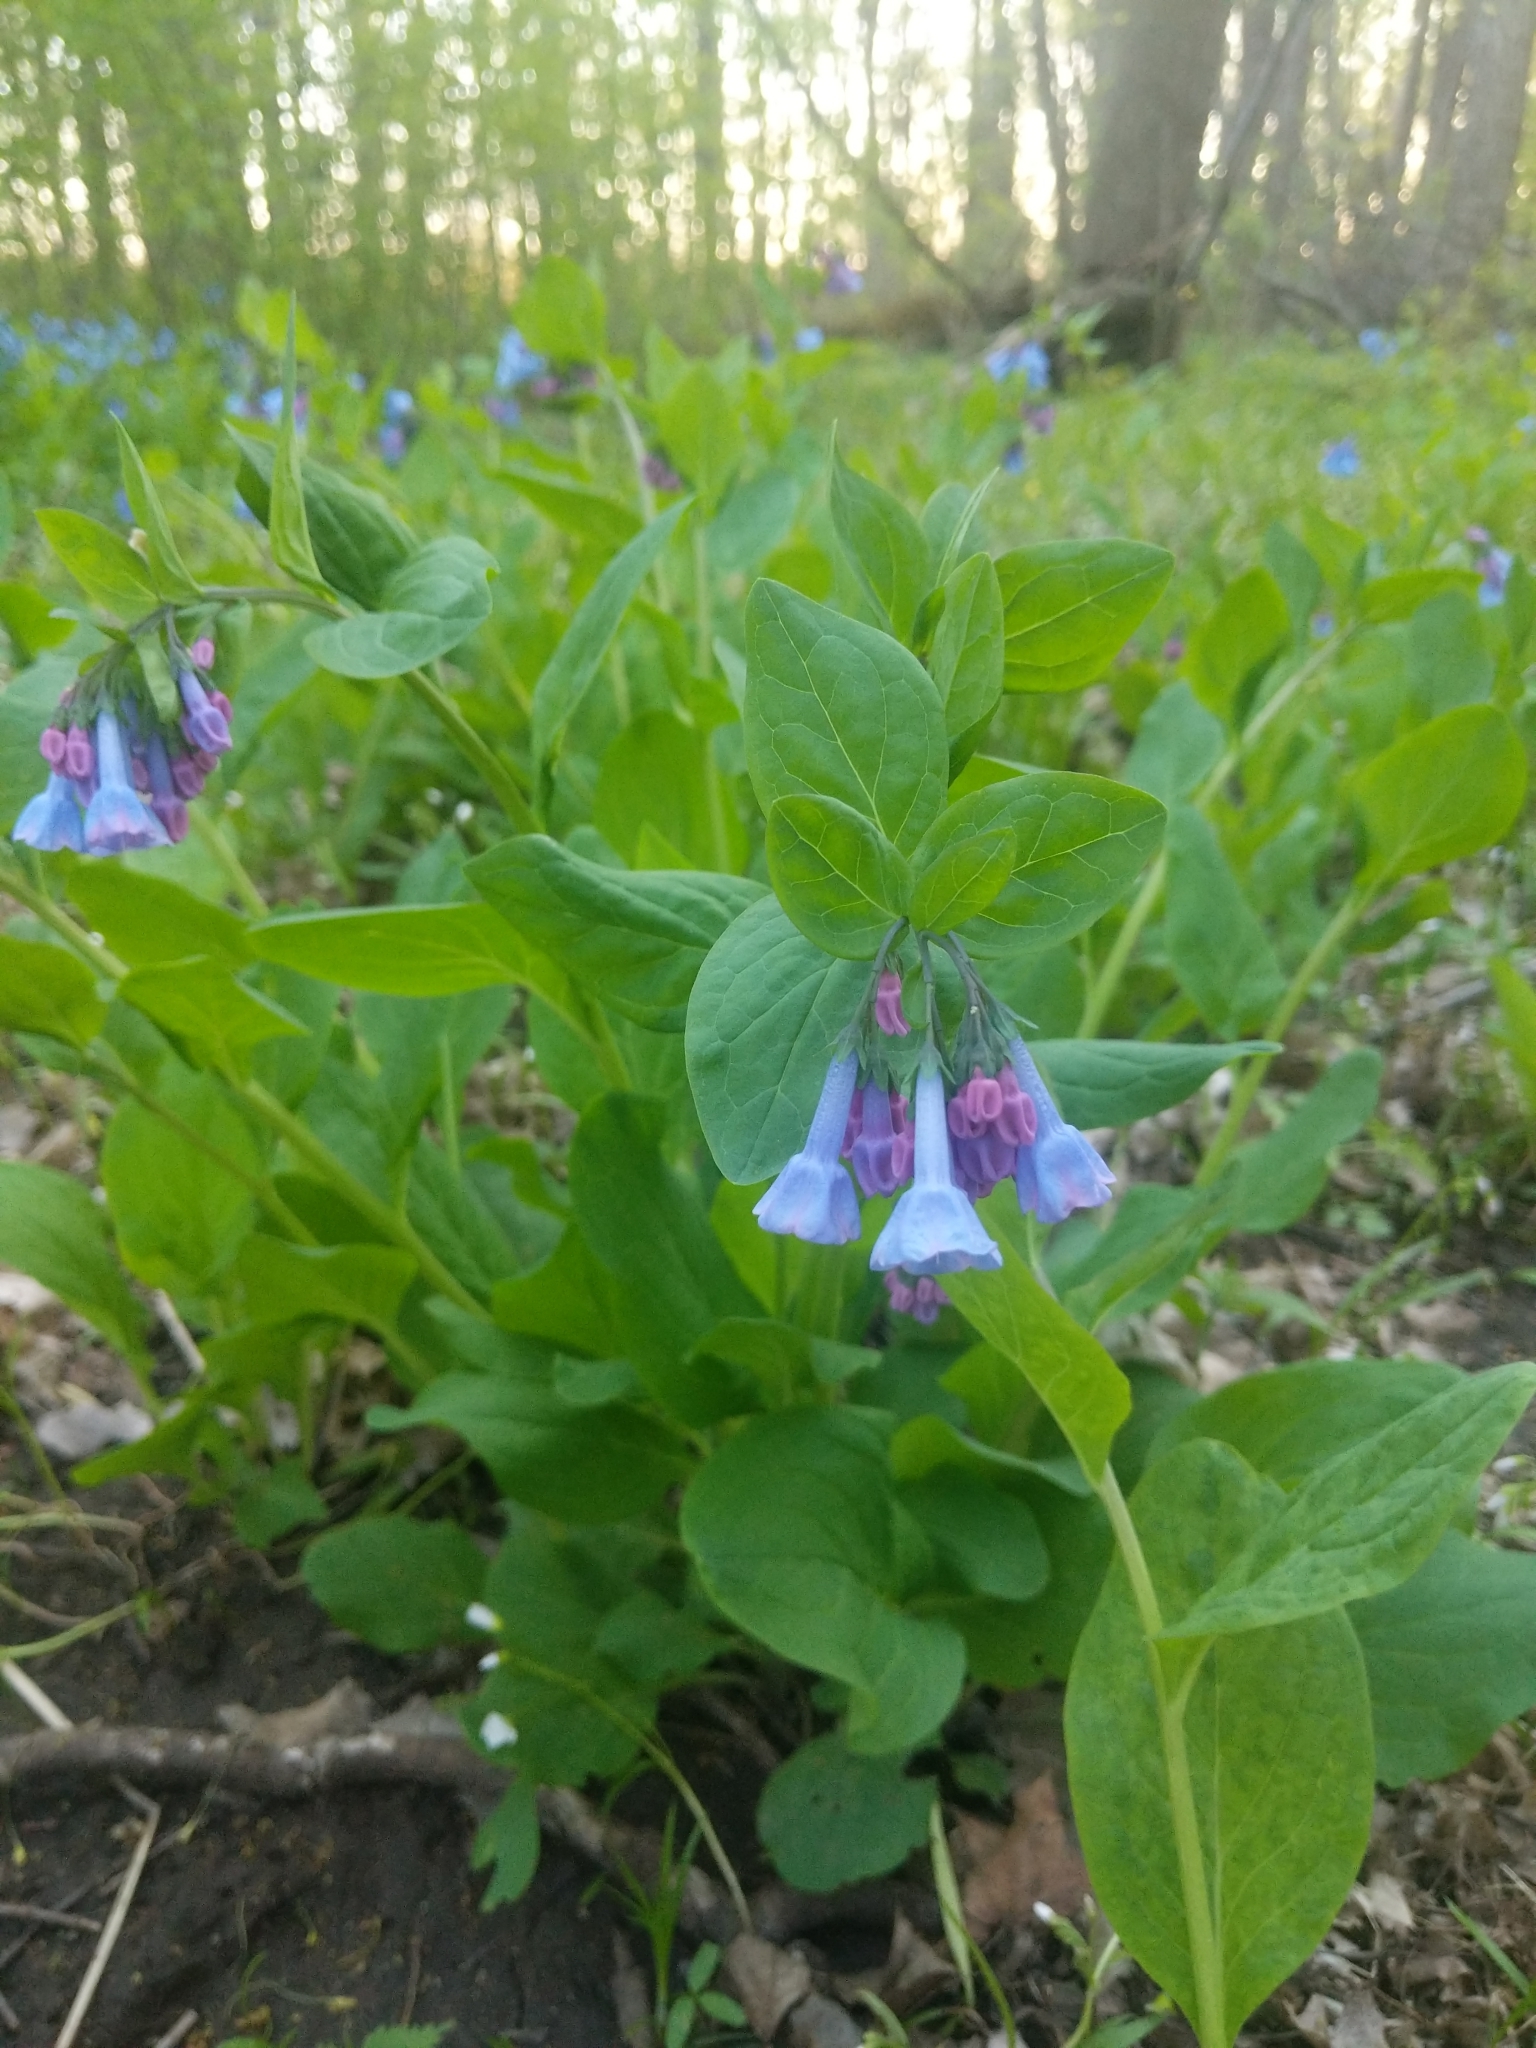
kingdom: Plantae
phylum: Tracheophyta
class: Magnoliopsida
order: Boraginales
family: Boraginaceae
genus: Mertensia
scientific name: Mertensia virginica
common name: Virginia bluebells
